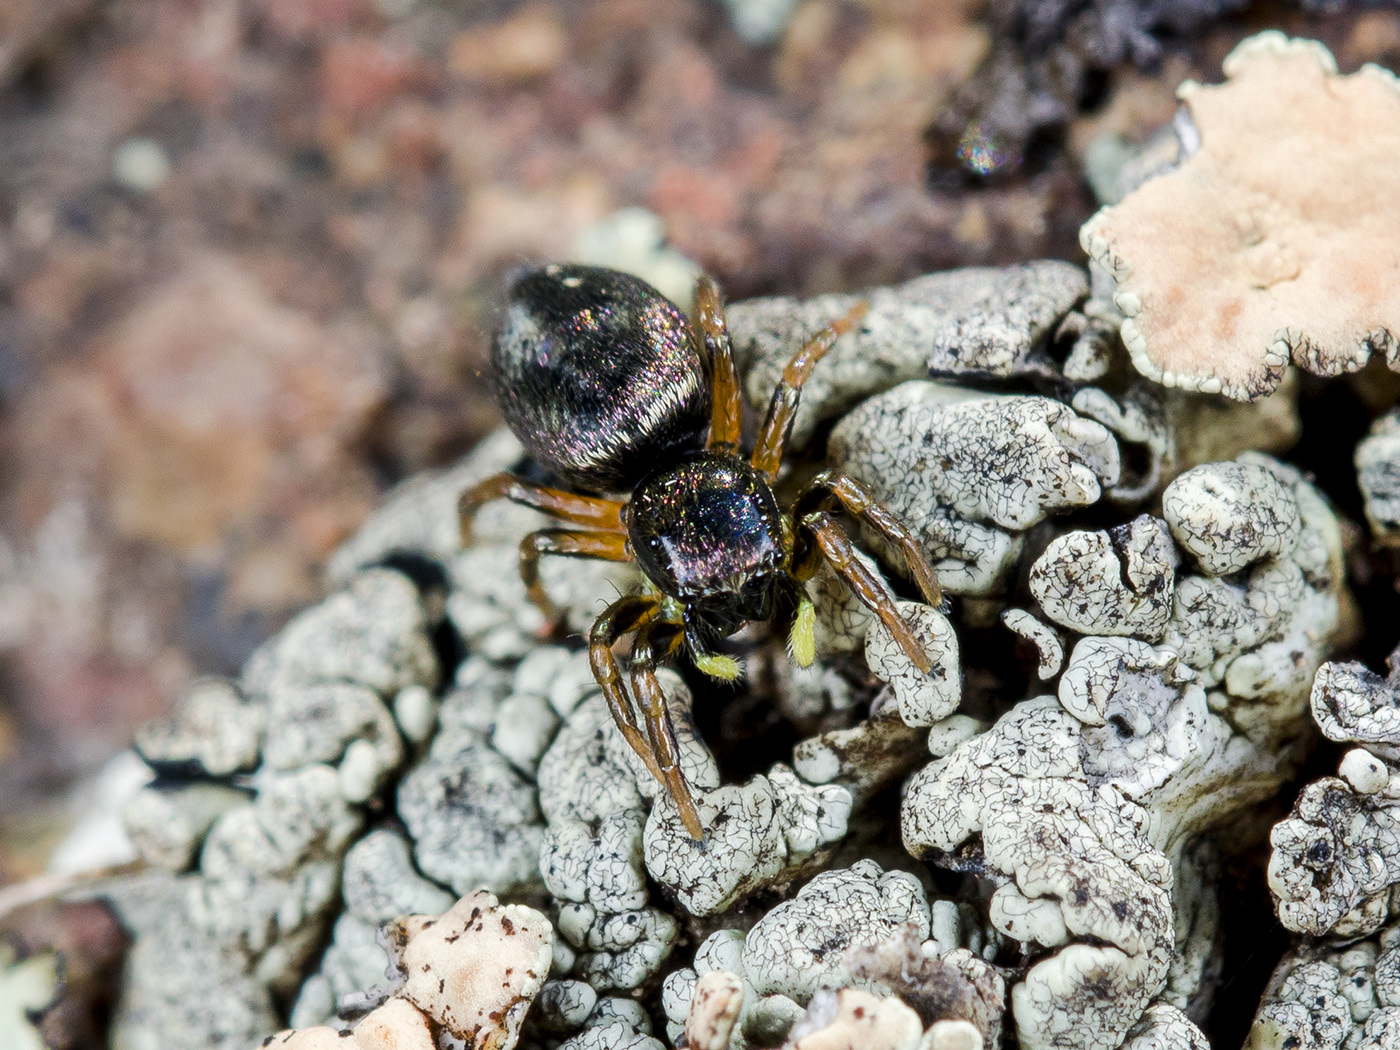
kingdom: Animalia
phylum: Arthropoda
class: Arachnida
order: Araneae
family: Salticidae
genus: Heliophanus
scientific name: Heliophanus wesolowskae
